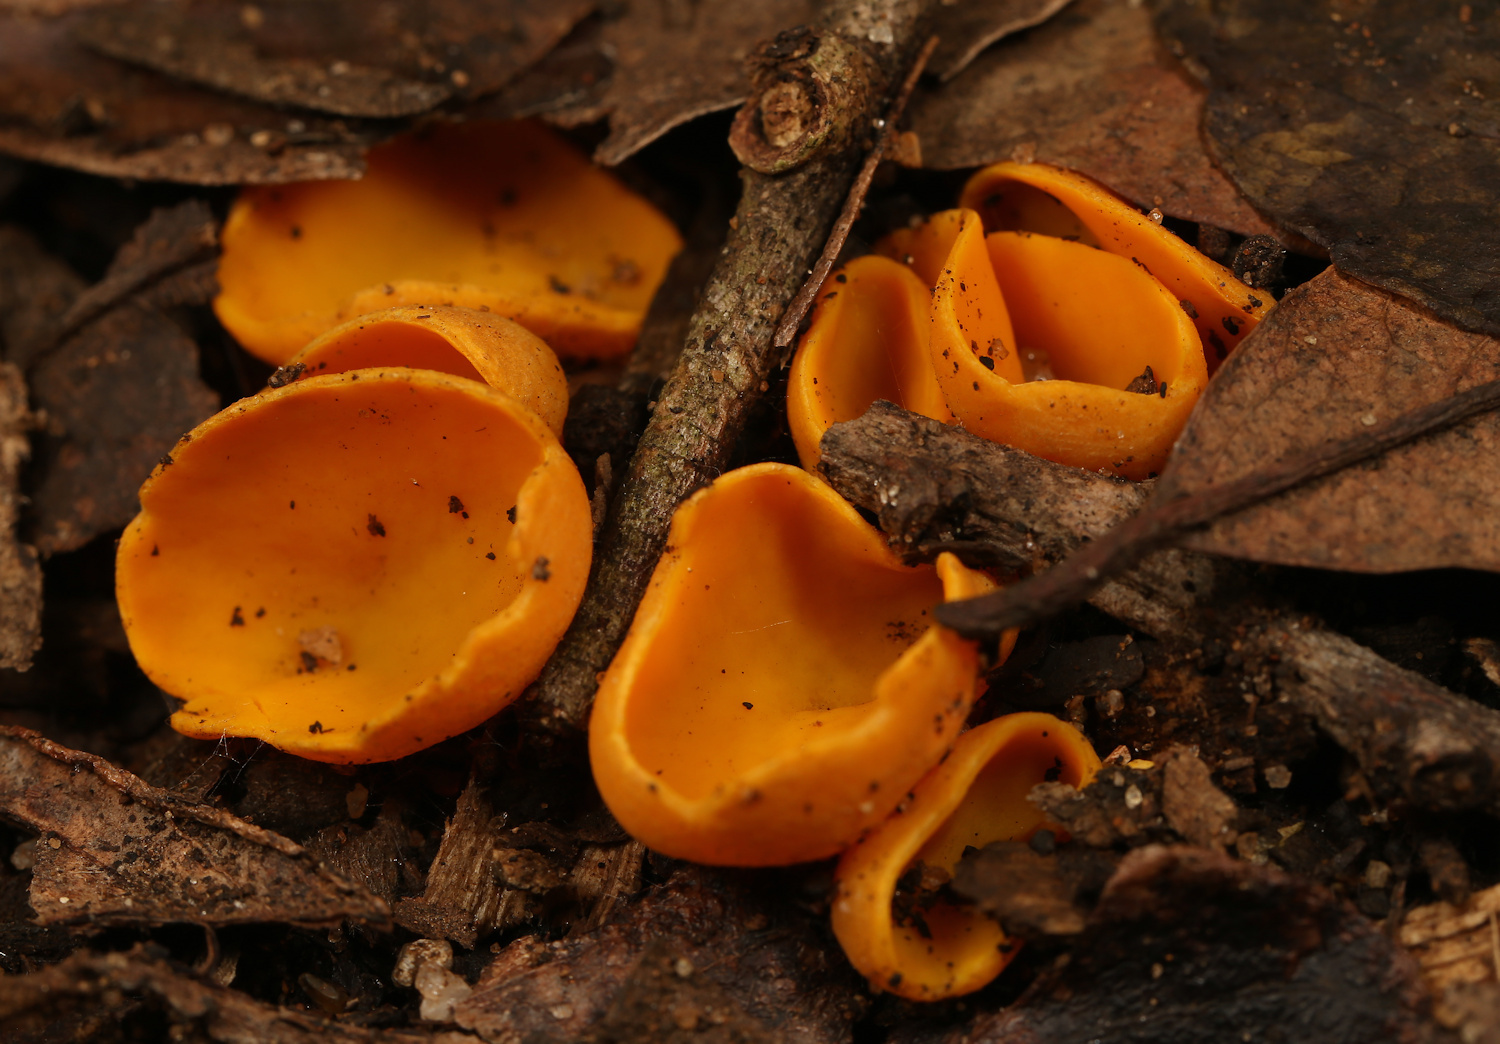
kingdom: Fungi
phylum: Ascomycota
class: Pezizomycetes
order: Pezizales
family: Pyronemataceae
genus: Aleuria
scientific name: Aleuria aurantia
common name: Orange peel fungus
